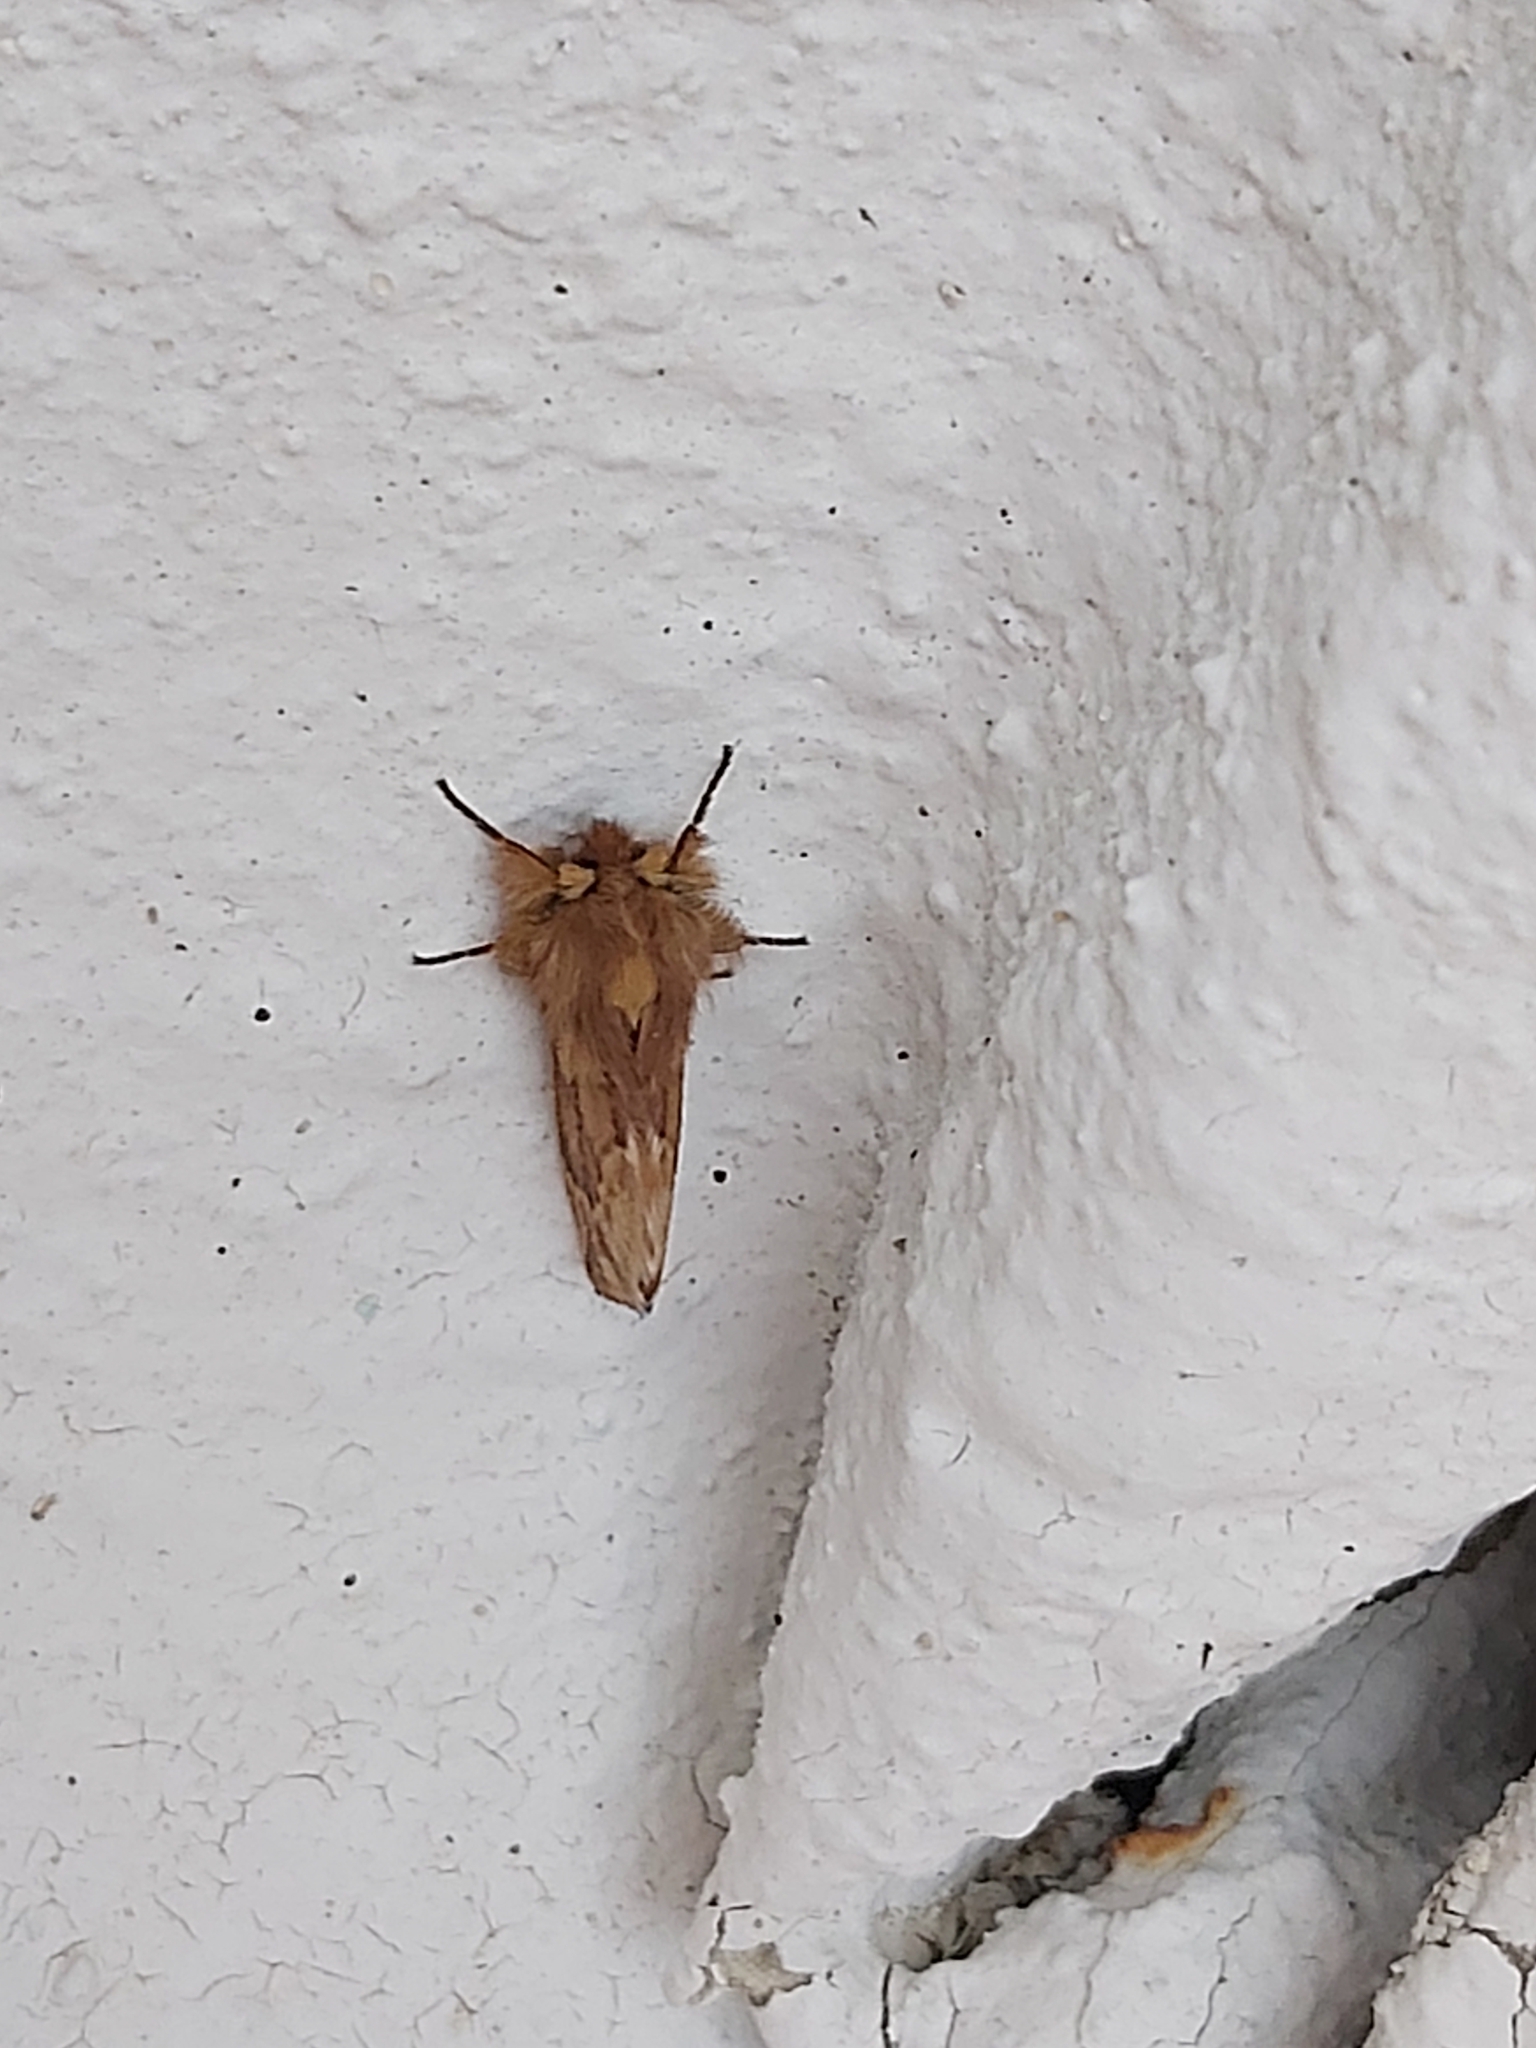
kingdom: Animalia
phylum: Arthropoda
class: Insecta
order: Lepidoptera
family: Notodontidae
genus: Ptilophora
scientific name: Ptilophora plumigera
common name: Plumed prominent
